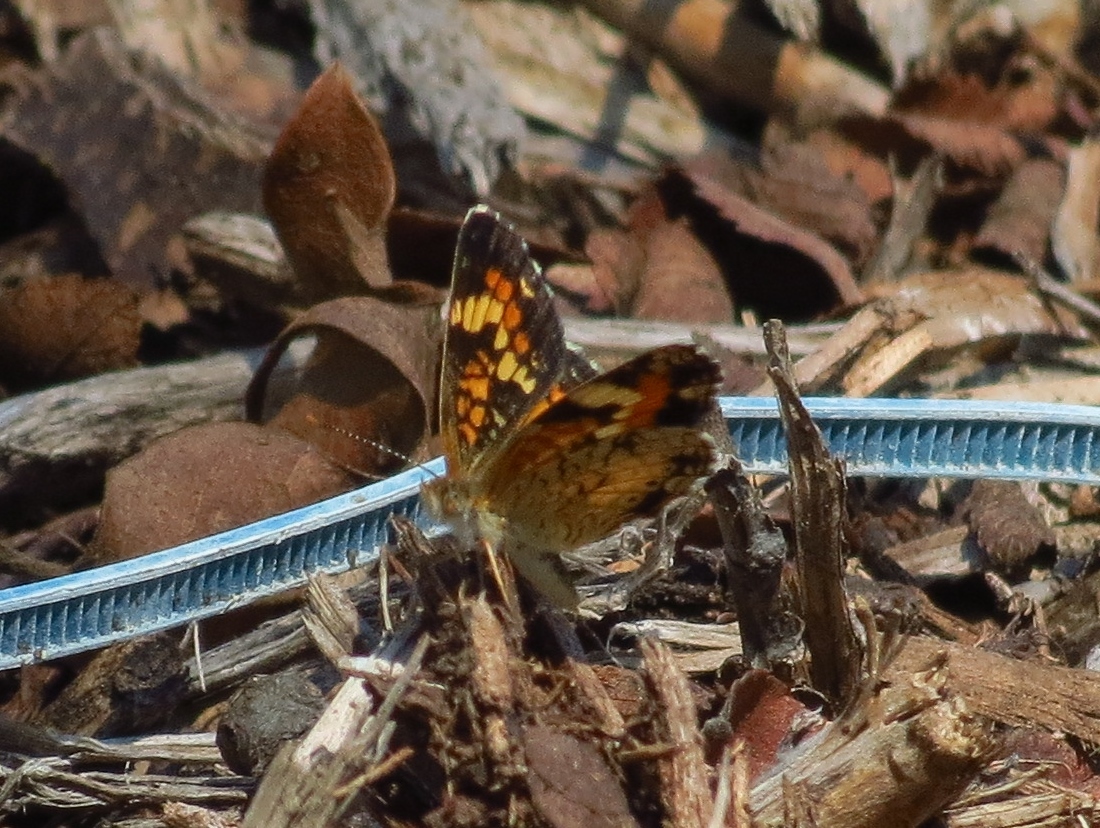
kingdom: Animalia
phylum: Arthropoda
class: Insecta
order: Lepidoptera
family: Nymphalidae
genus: Phyciodes
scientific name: Phyciodes phaon
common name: Phaon crescent
